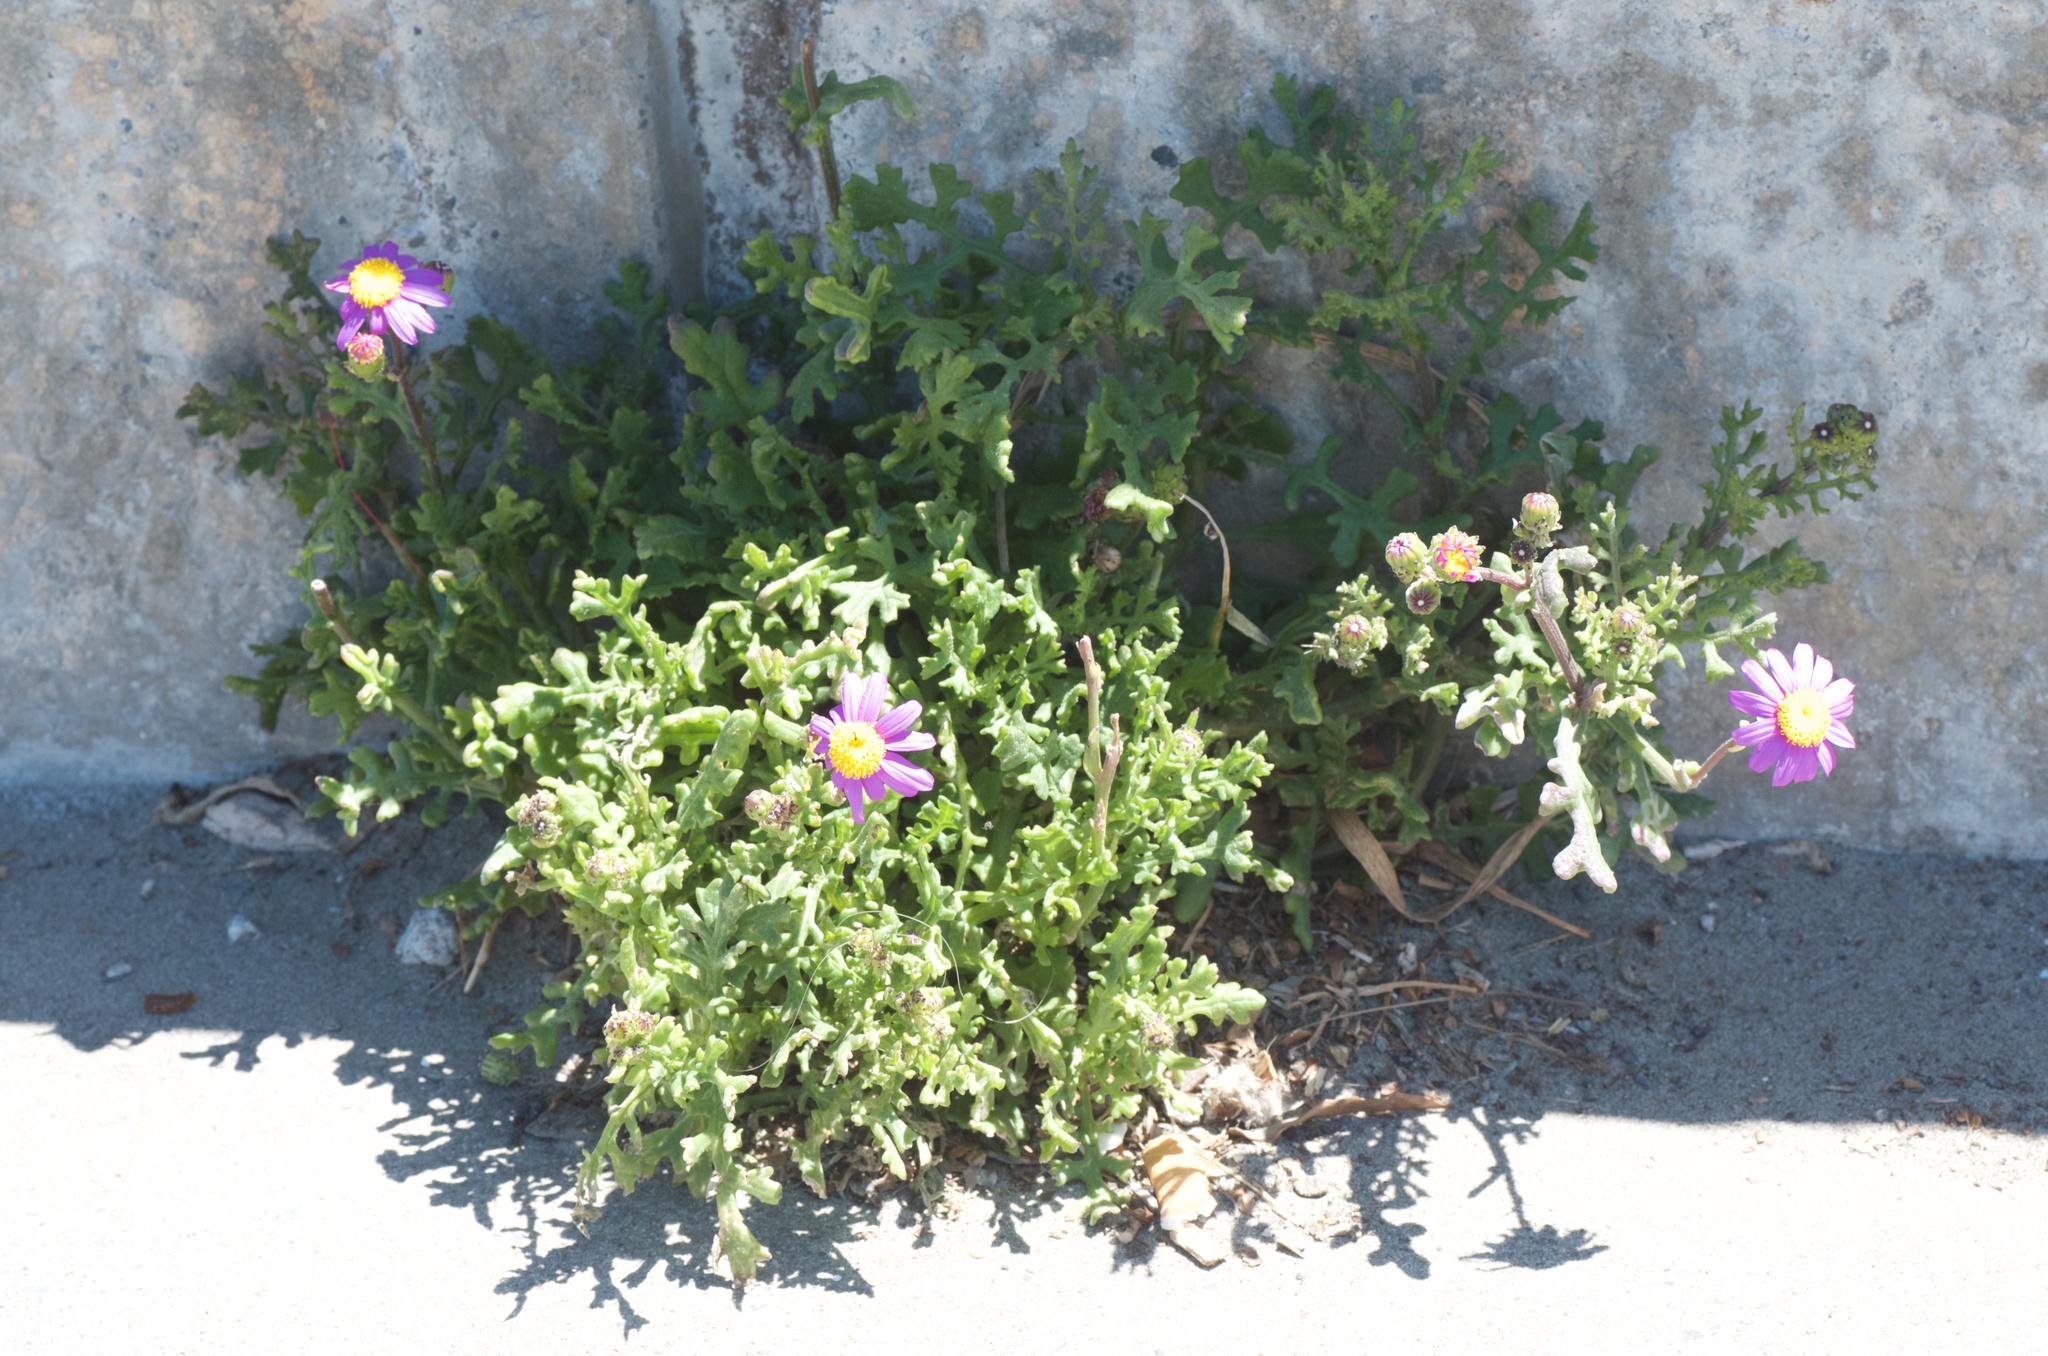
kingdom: Plantae
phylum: Tracheophyta
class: Magnoliopsida
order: Asterales
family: Asteraceae
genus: Senecio
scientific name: Senecio elegans
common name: Purple groundsel
